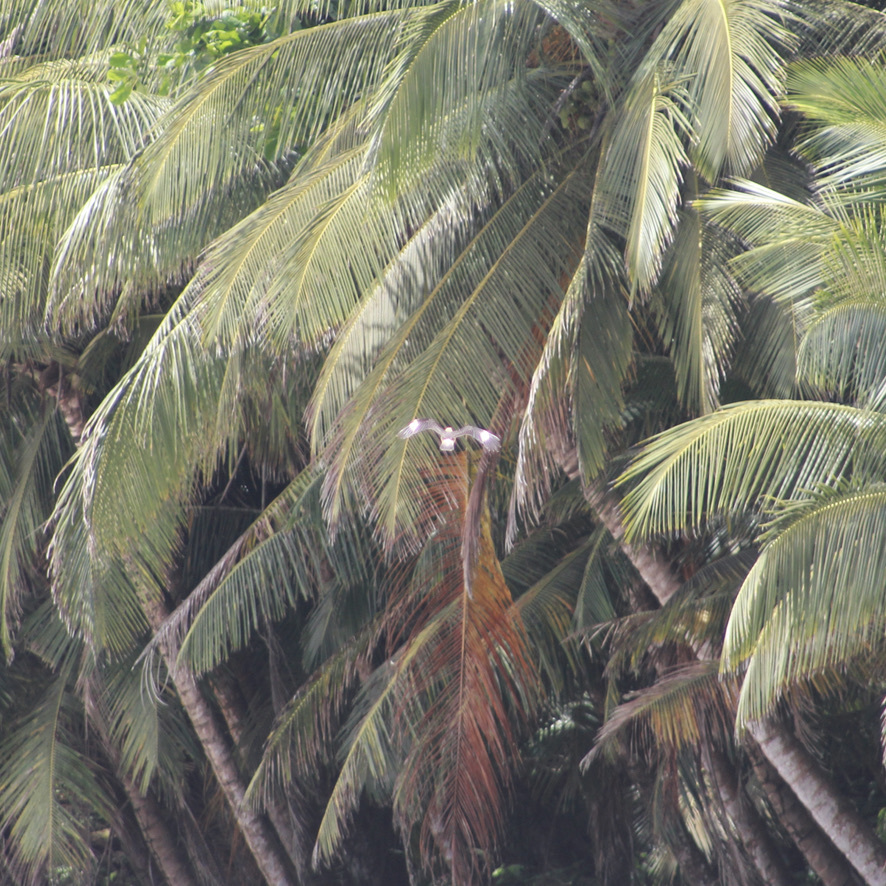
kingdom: Animalia
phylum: Chordata
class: Aves
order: Falconiformes
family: Falconidae
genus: Daptrius
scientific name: Daptrius
